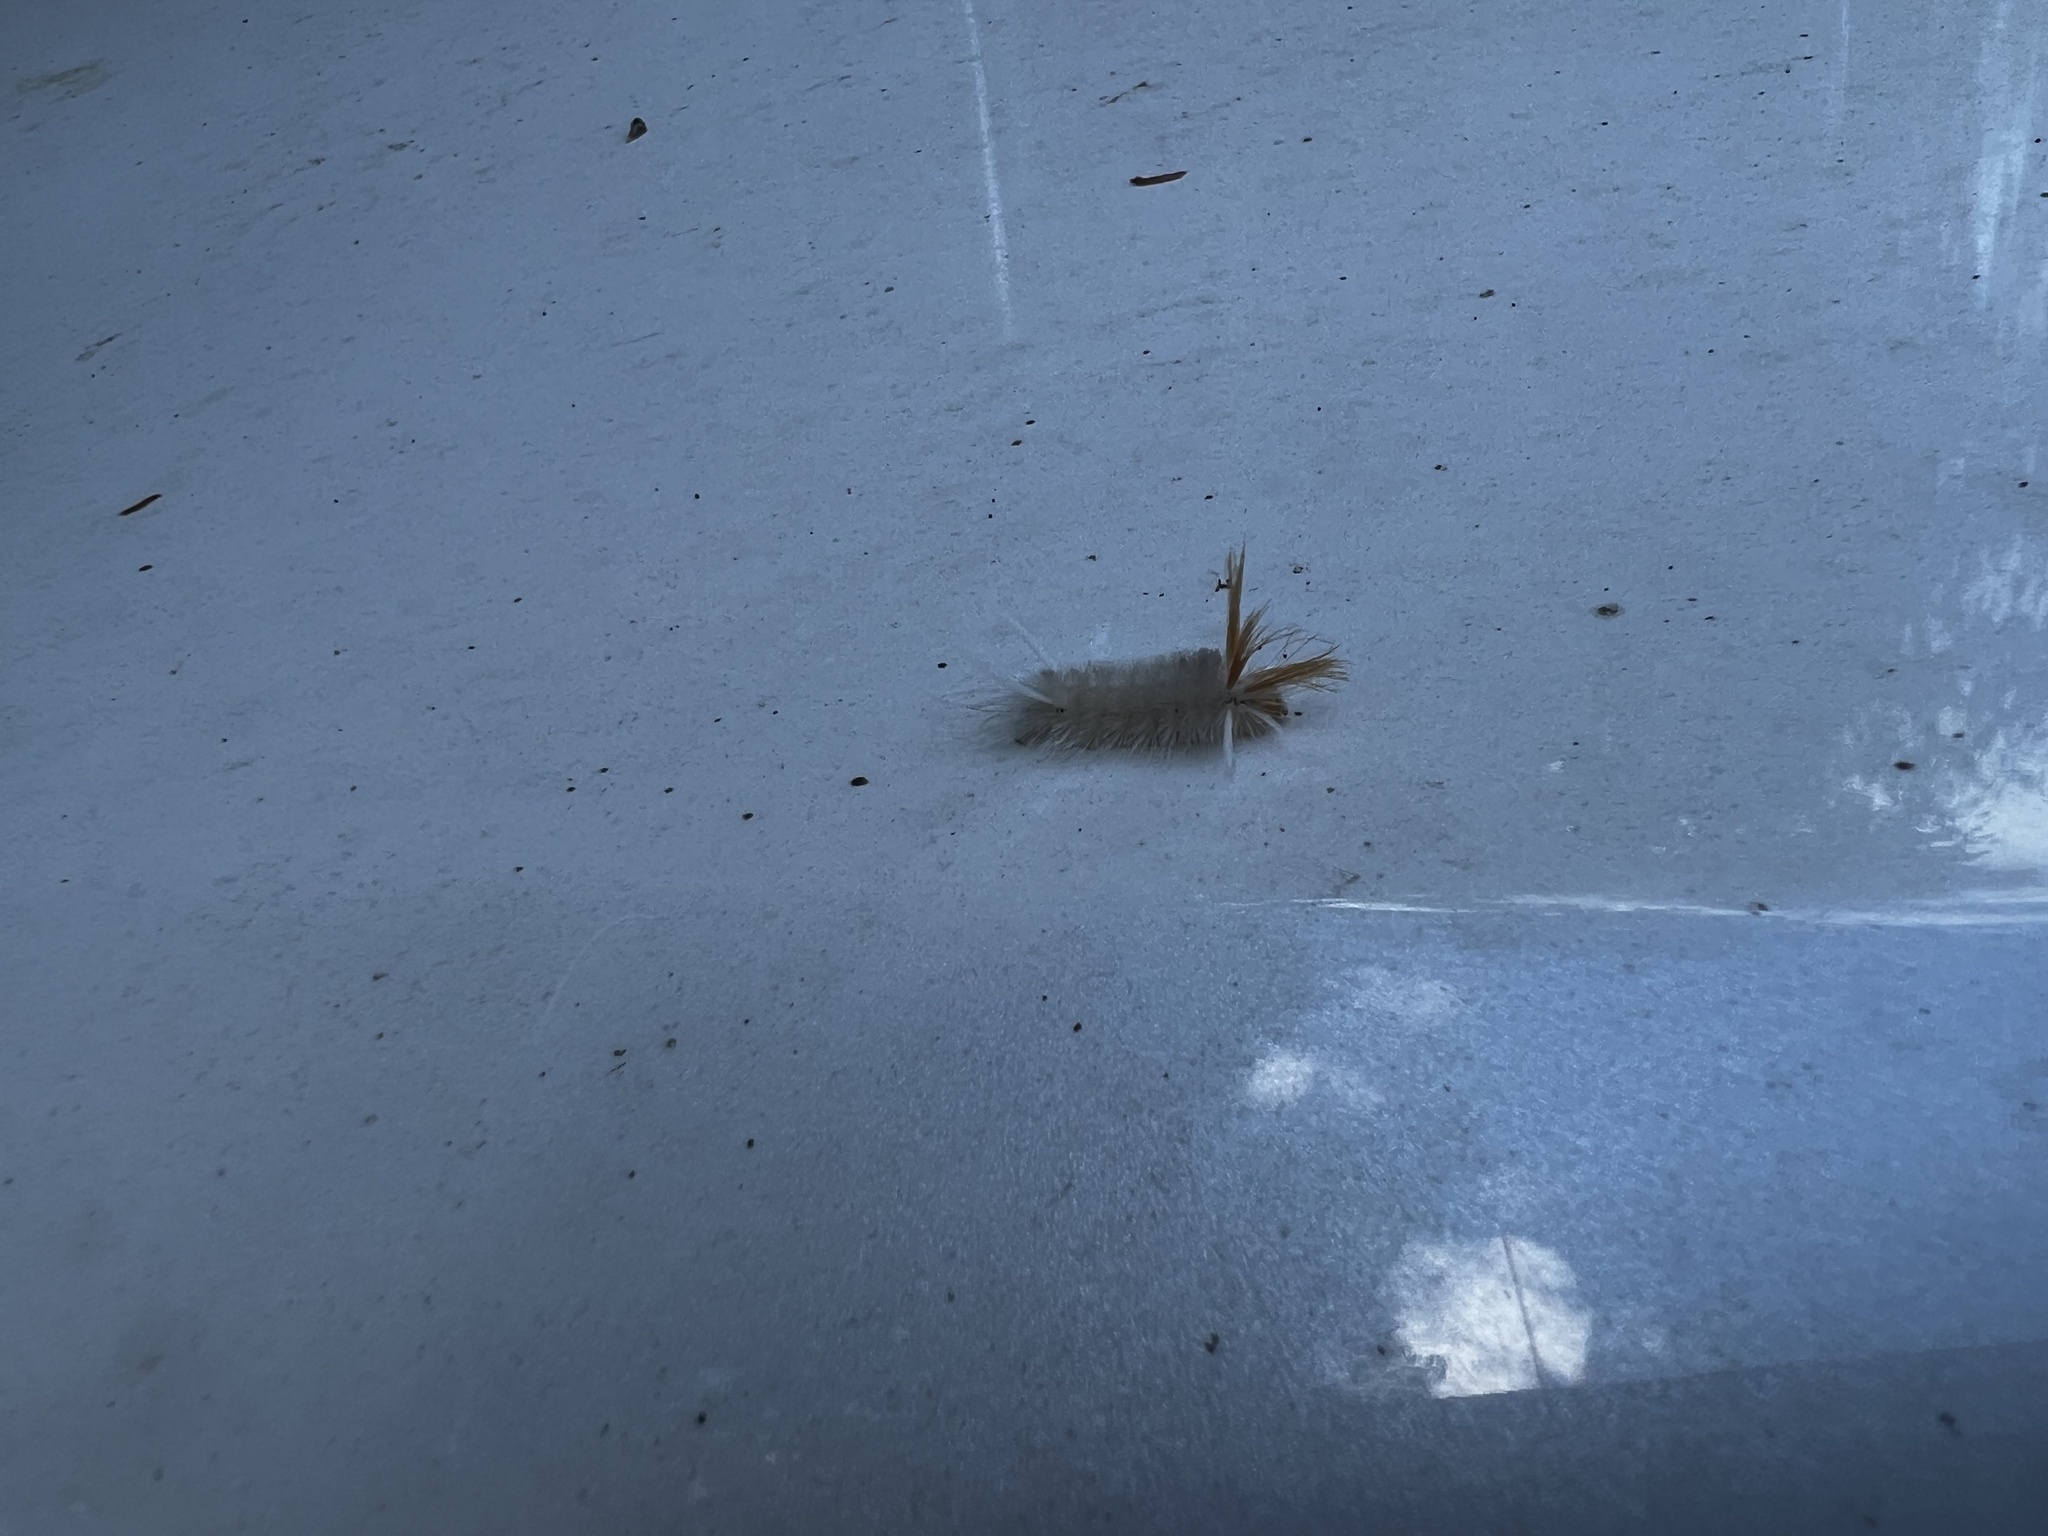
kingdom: Animalia
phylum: Arthropoda
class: Insecta
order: Lepidoptera
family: Erebidae
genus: Halysidota
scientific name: Halysidota harrisii
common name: Sycamore tussock moth
